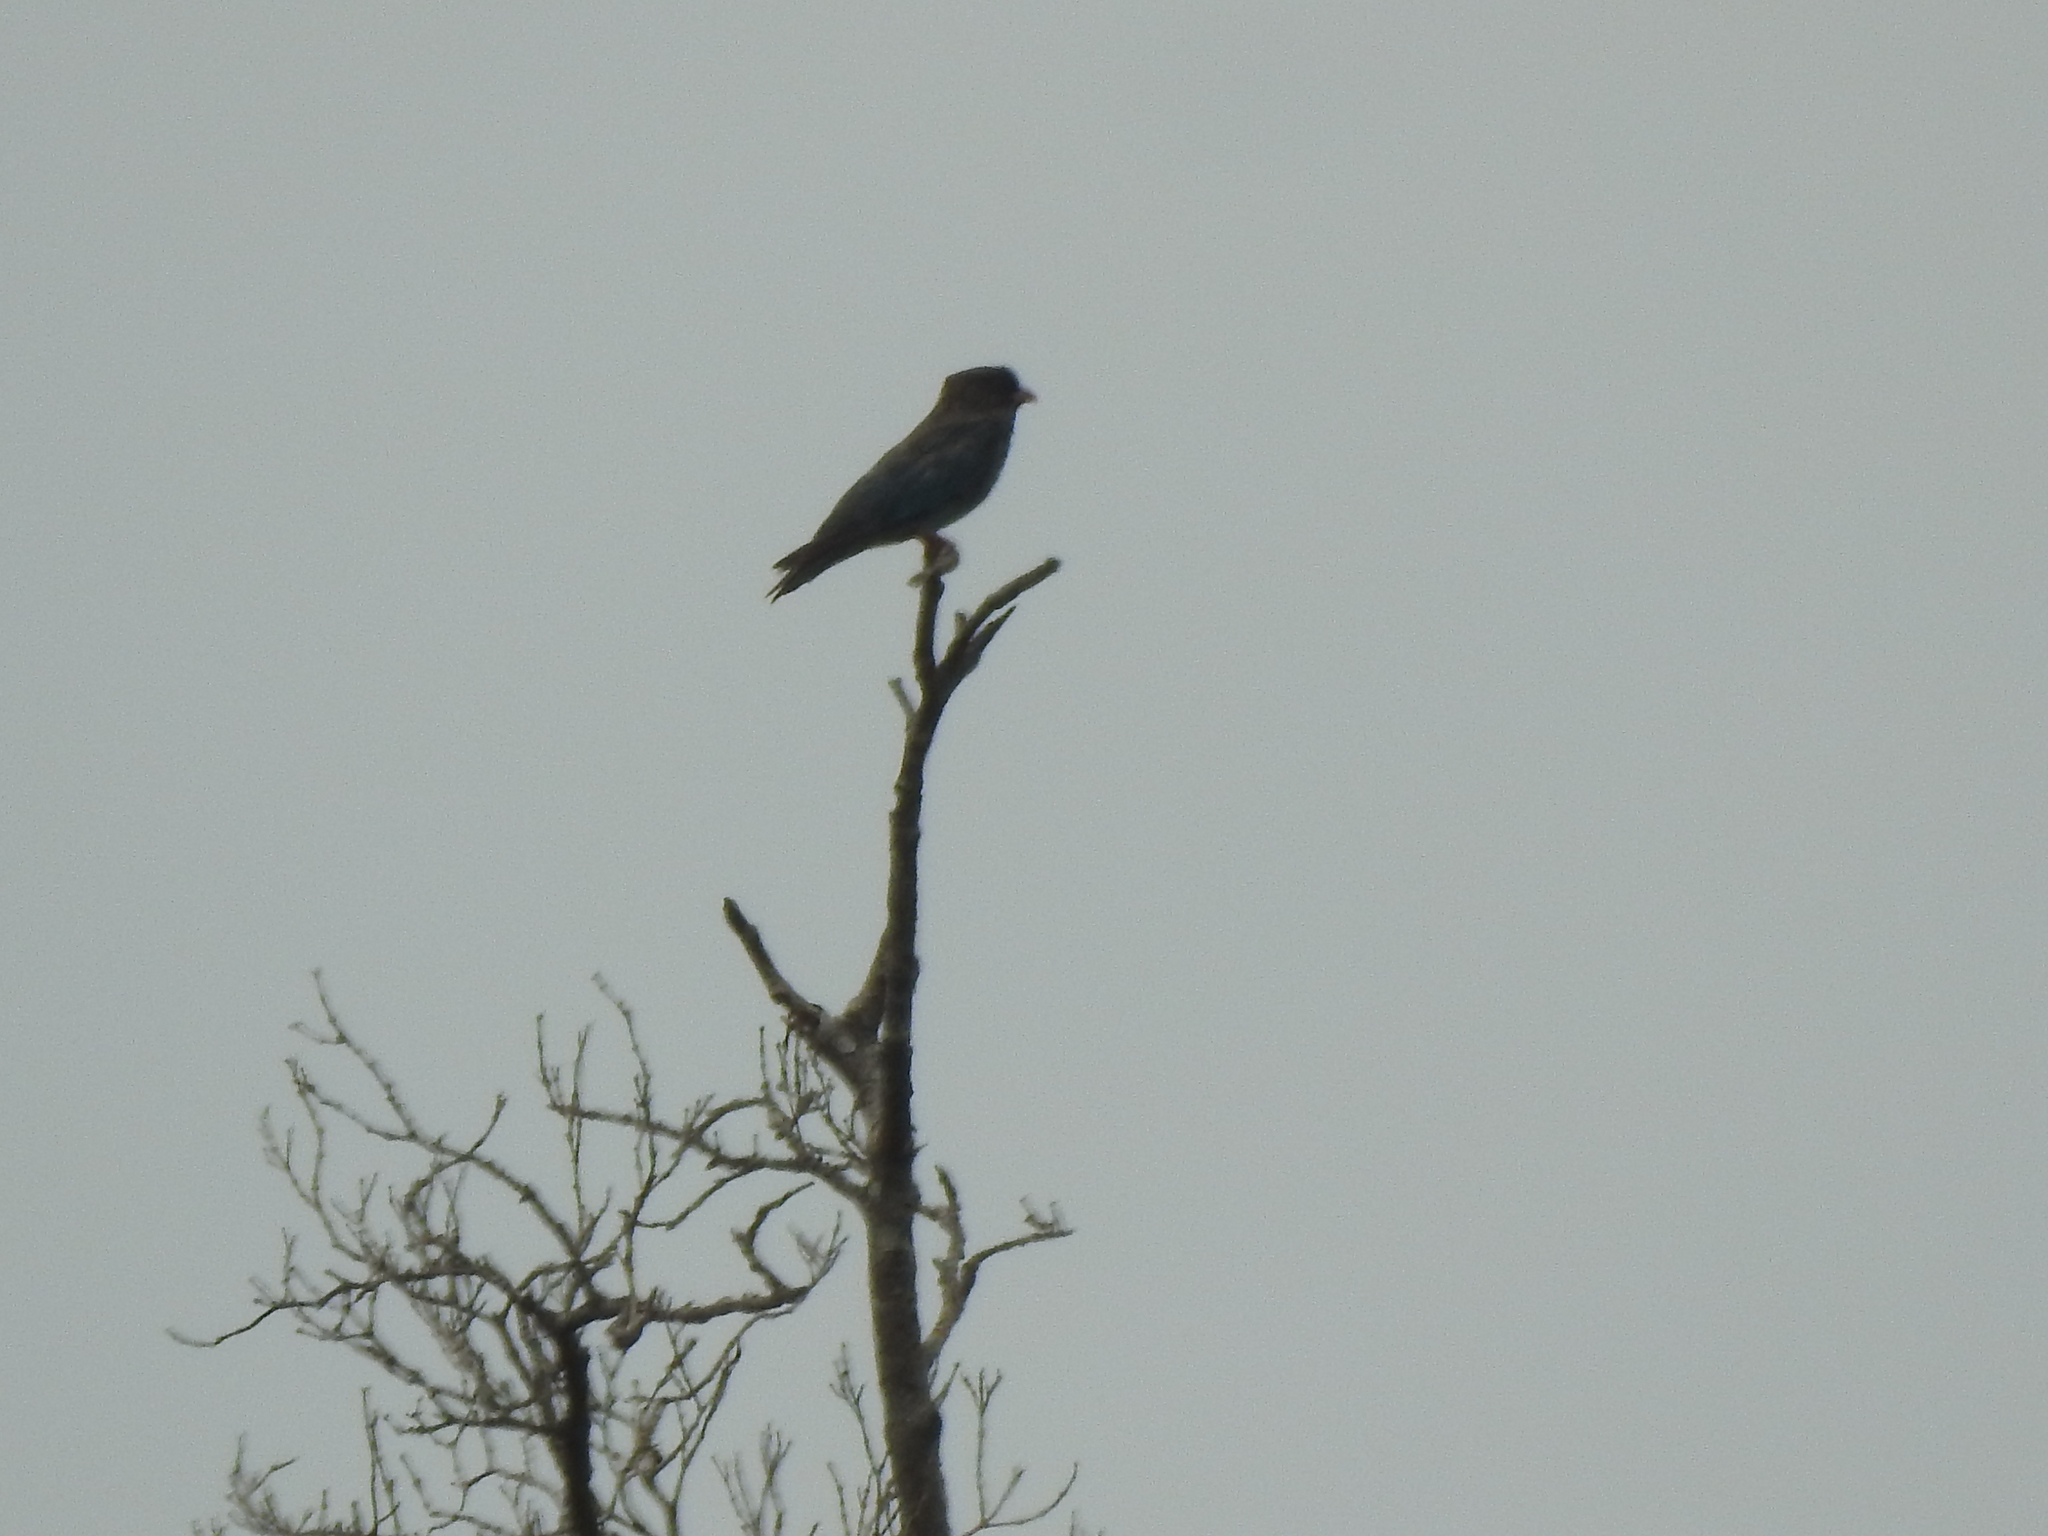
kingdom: Animalia
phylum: Chordata
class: Aves
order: Coraciiformes
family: Coraciidae
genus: Eurystomus
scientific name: Eurystomus orientalis
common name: Oriental dollarbird
